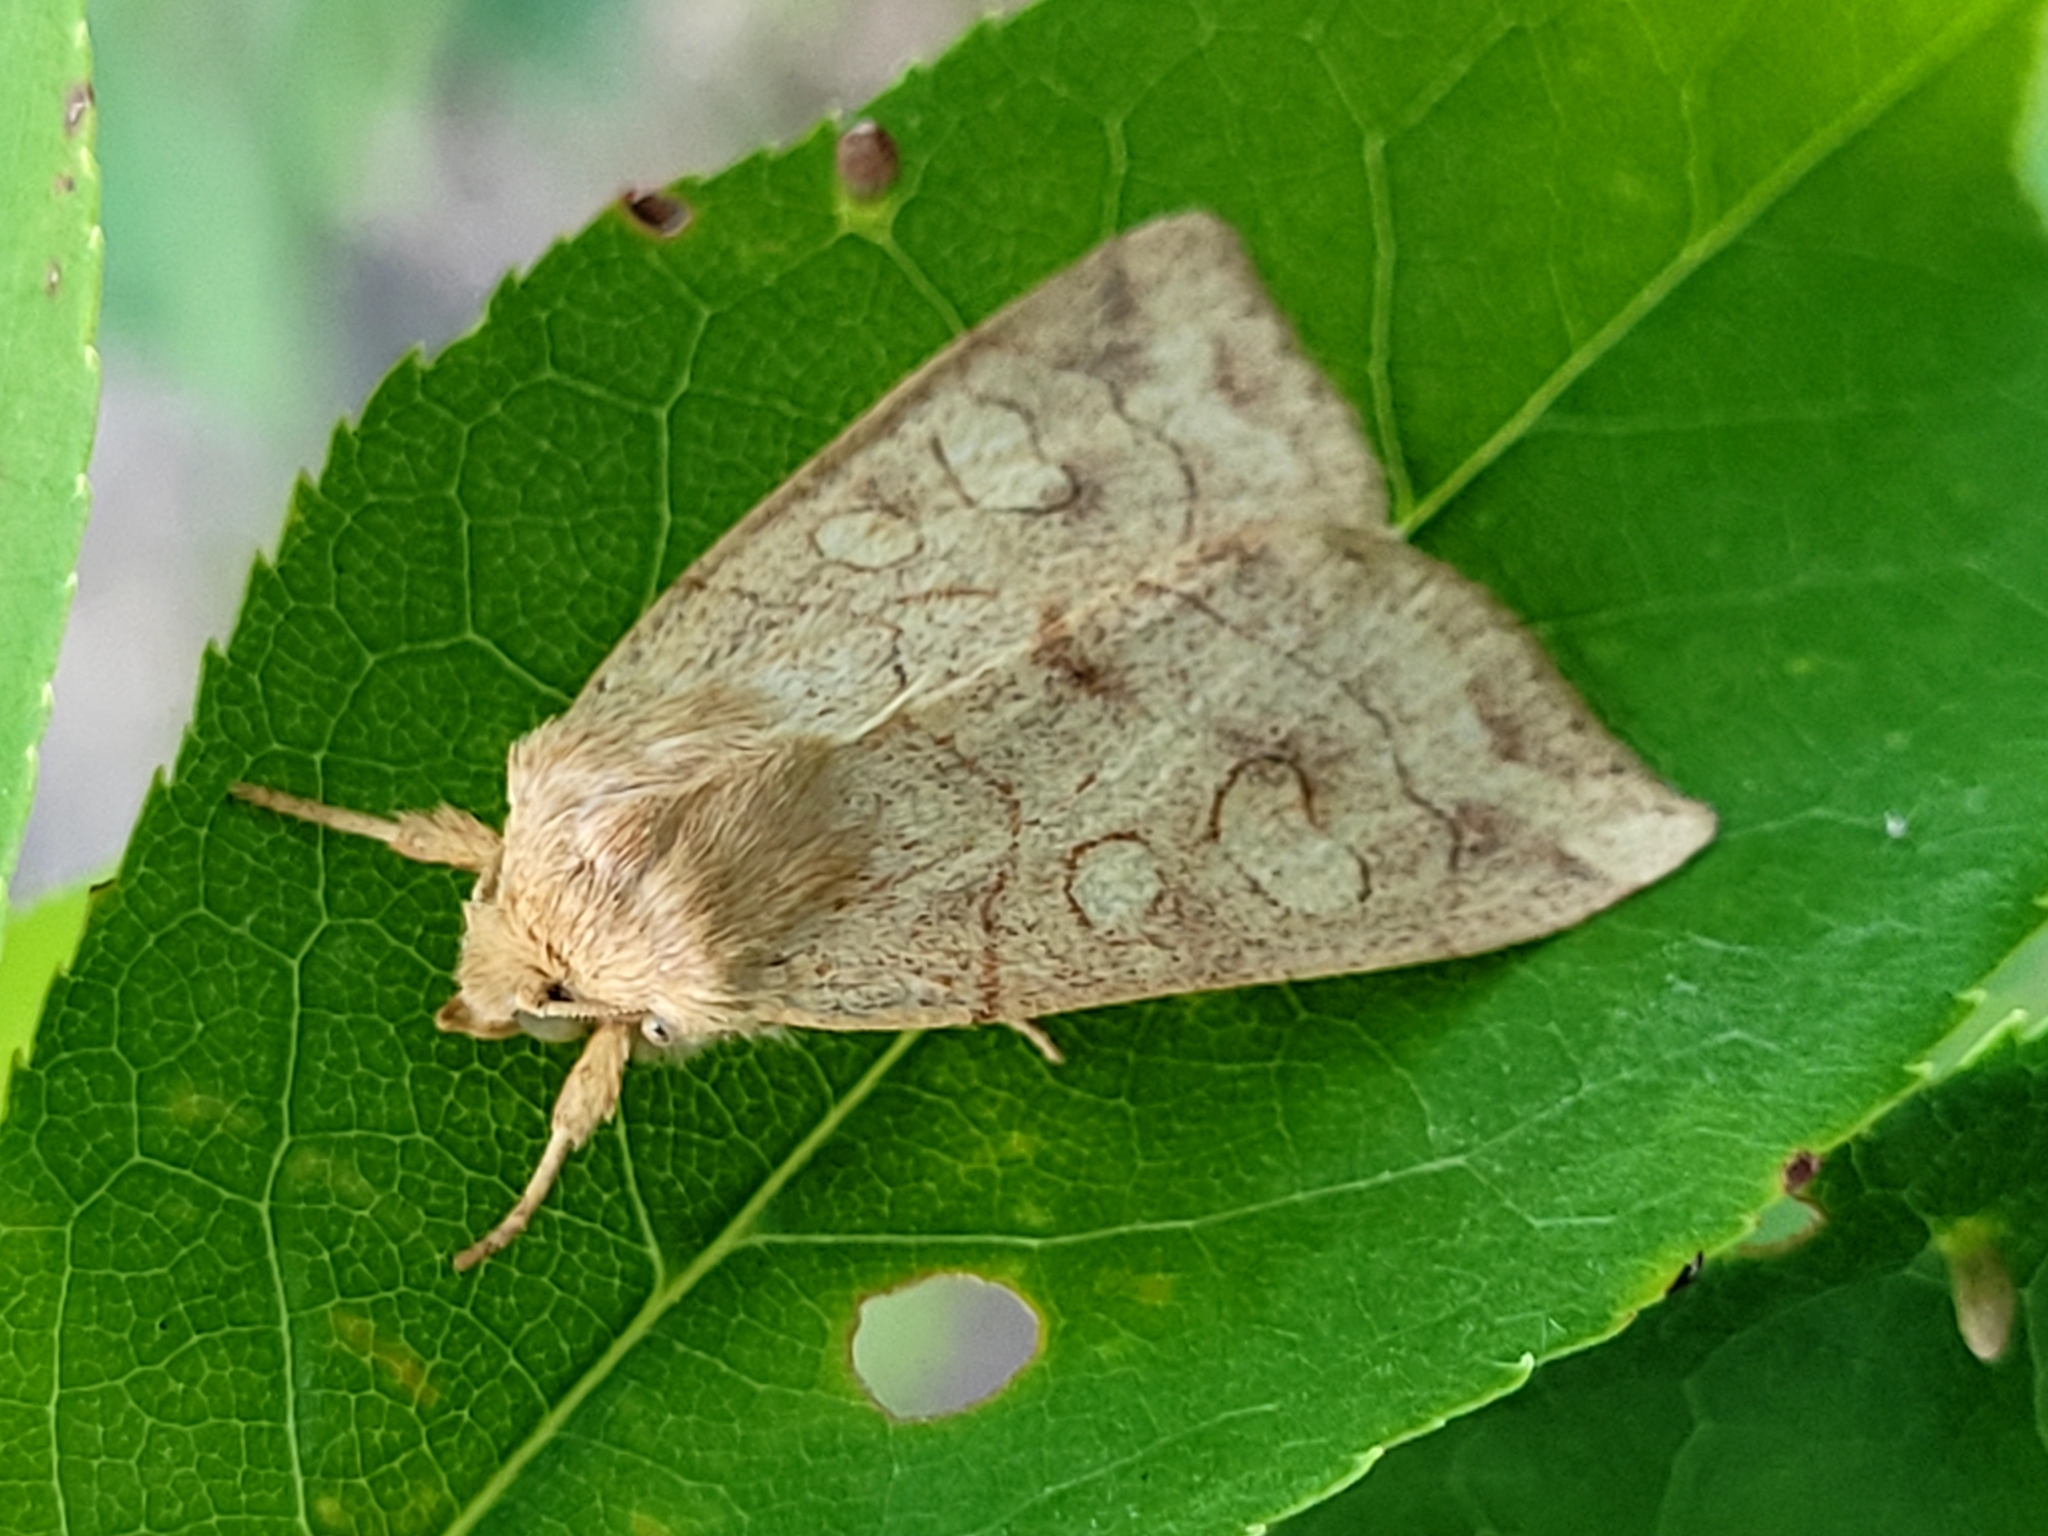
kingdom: Animalia
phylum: Arthropoda
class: Insecta
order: Lepidoptera
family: Noctuidae
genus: Enargia
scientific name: Enargia decolor
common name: Aspen twoleaf tier moth
